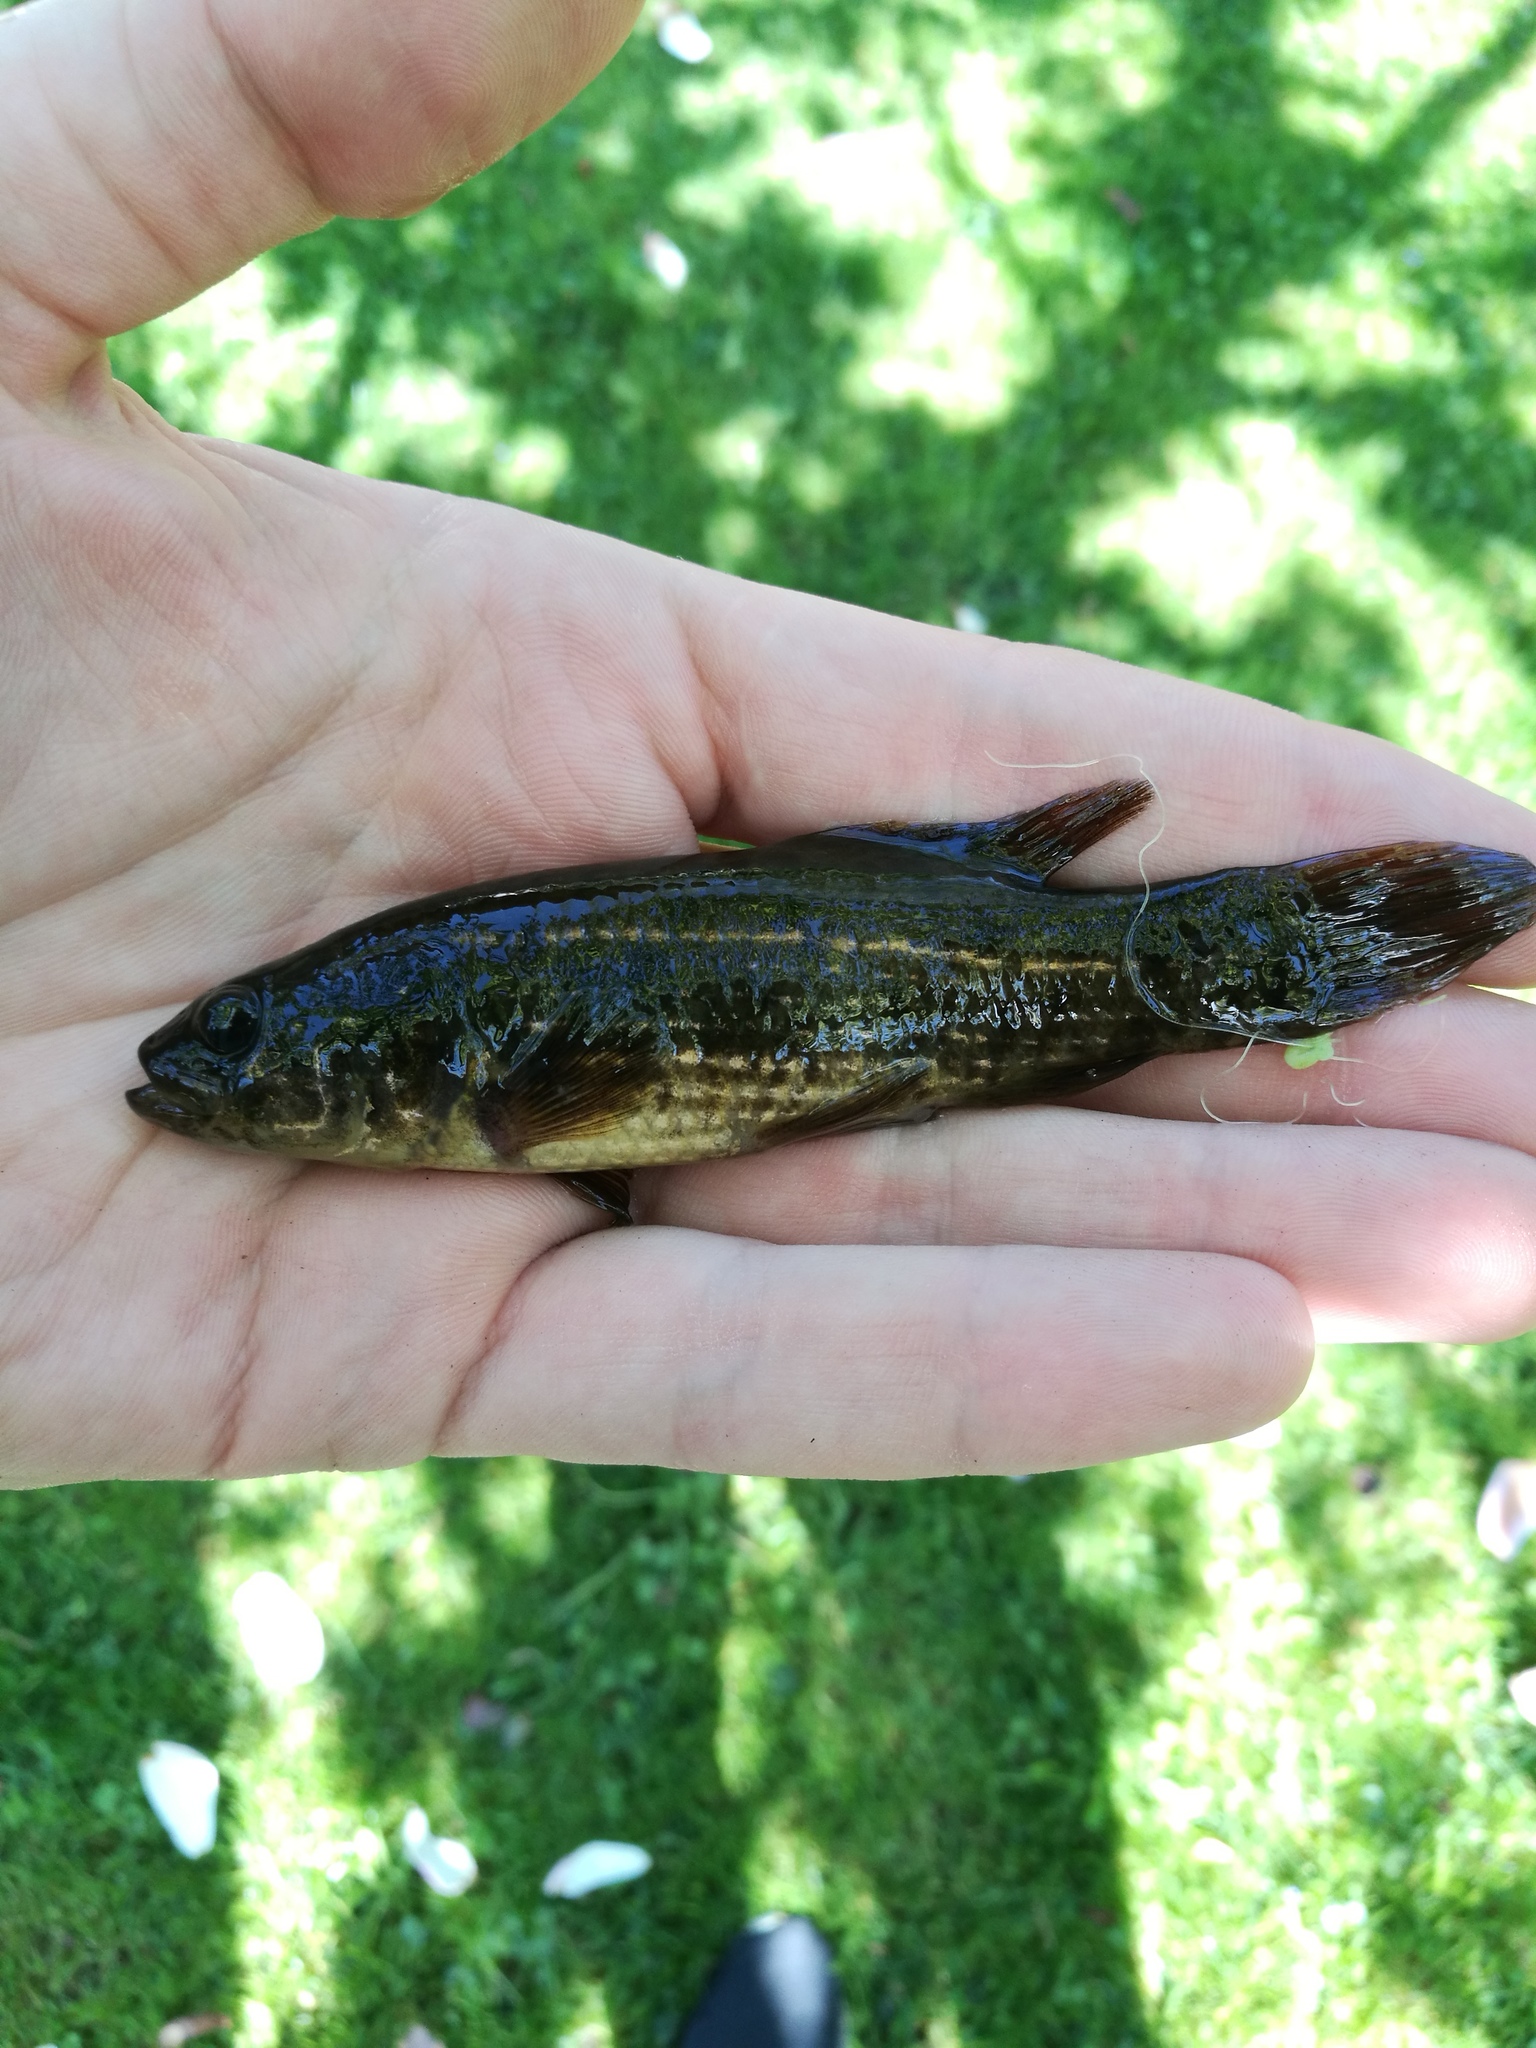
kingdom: Animalia
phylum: Chordata
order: Esociformes
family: Umbridae
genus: Umbra
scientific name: Umbra krameri
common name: European mudminnow
